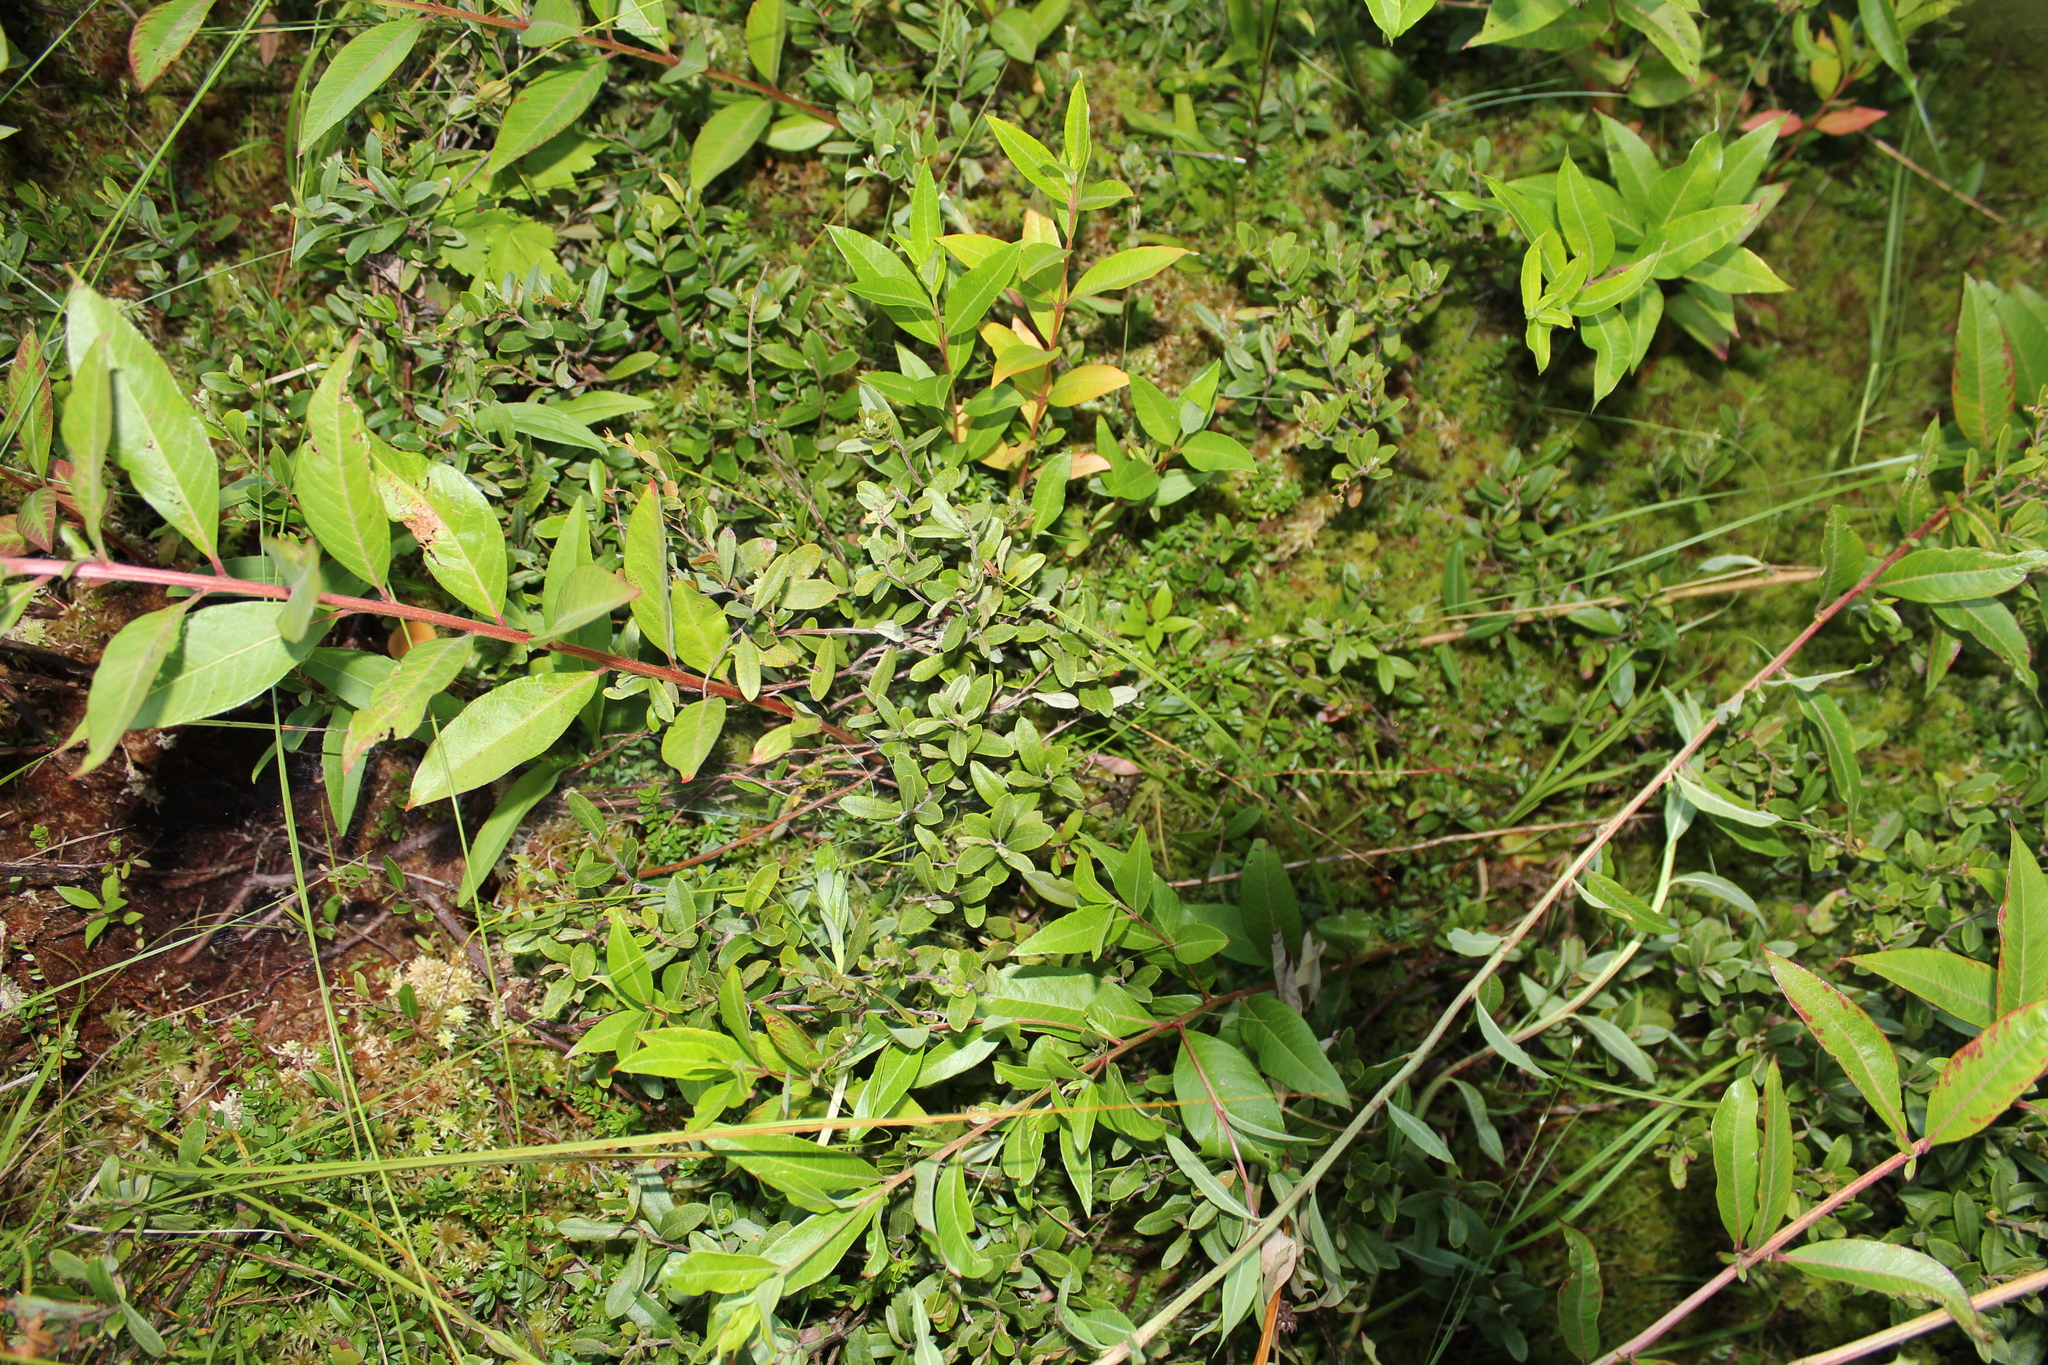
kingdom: Plantae
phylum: Tracheophyta
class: Magnoliopsida
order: Ericales
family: Ericaceae
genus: Chamaedaphne
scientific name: Chamaedaphne calyculata
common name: Leatherleaf
